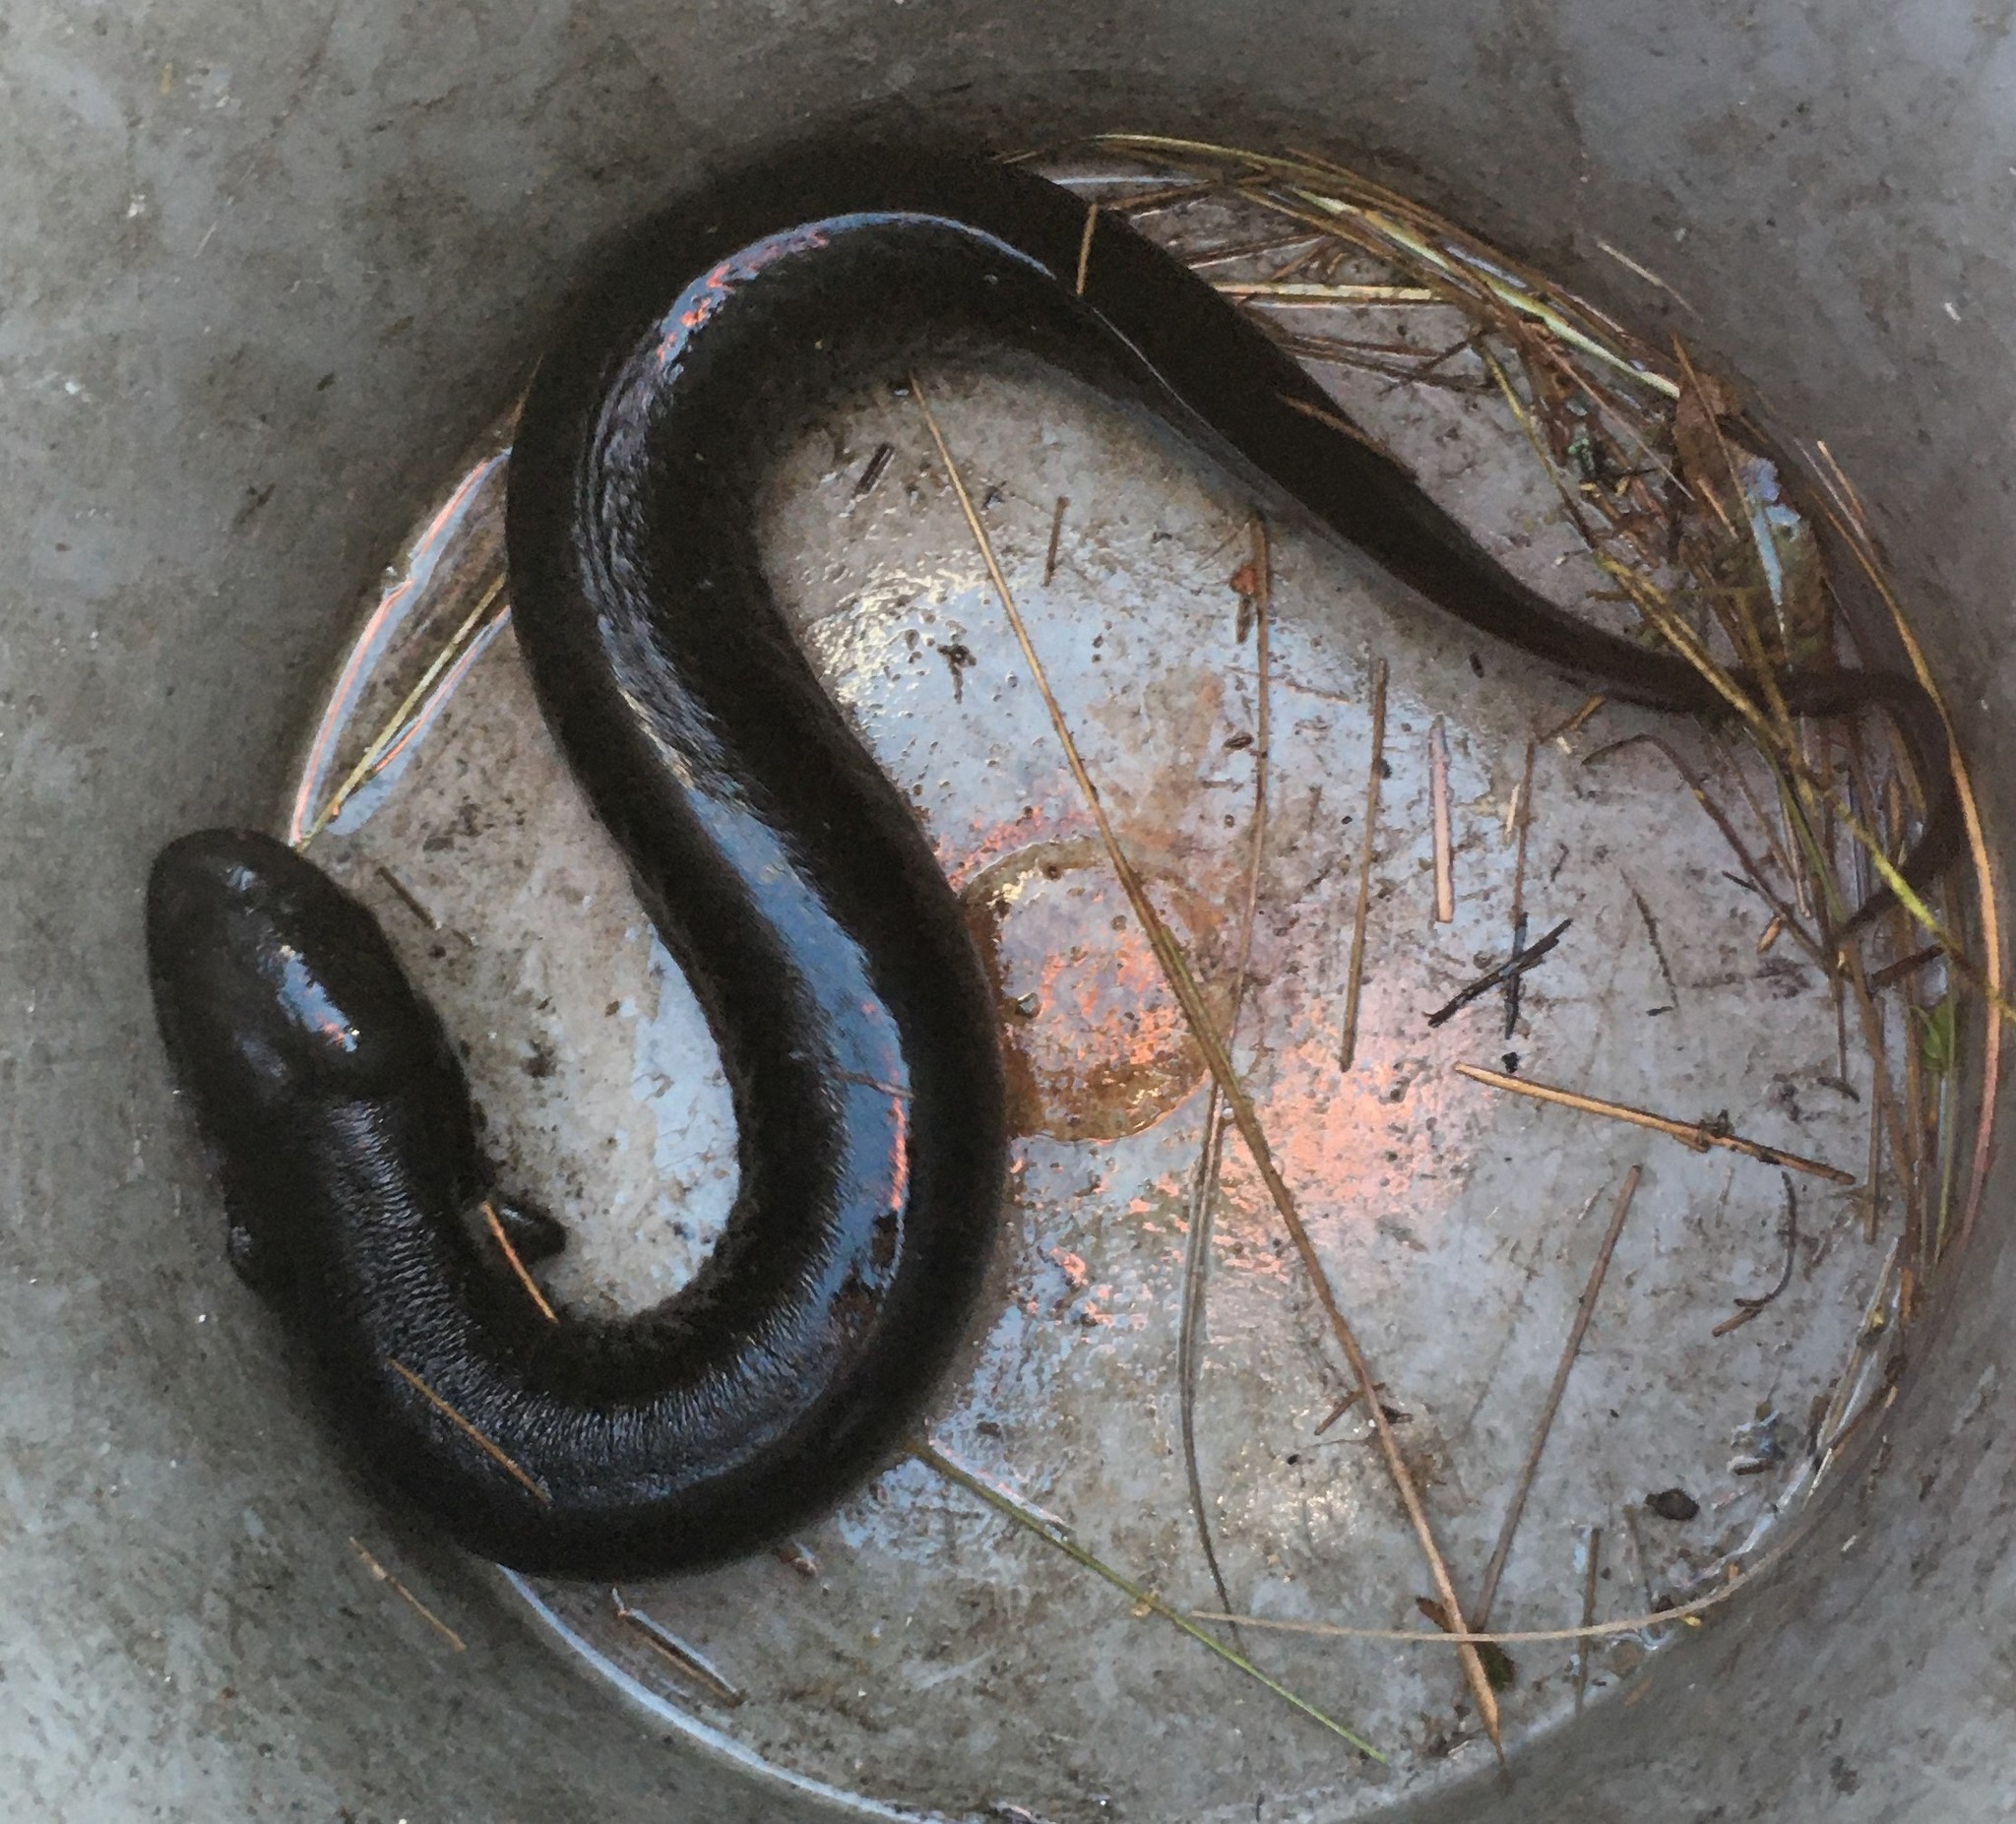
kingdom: Animalia
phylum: Chordata
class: Amphibia
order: Caudata
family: Sirenidae
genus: Siren
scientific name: Siren lacertina
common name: Greater siren
